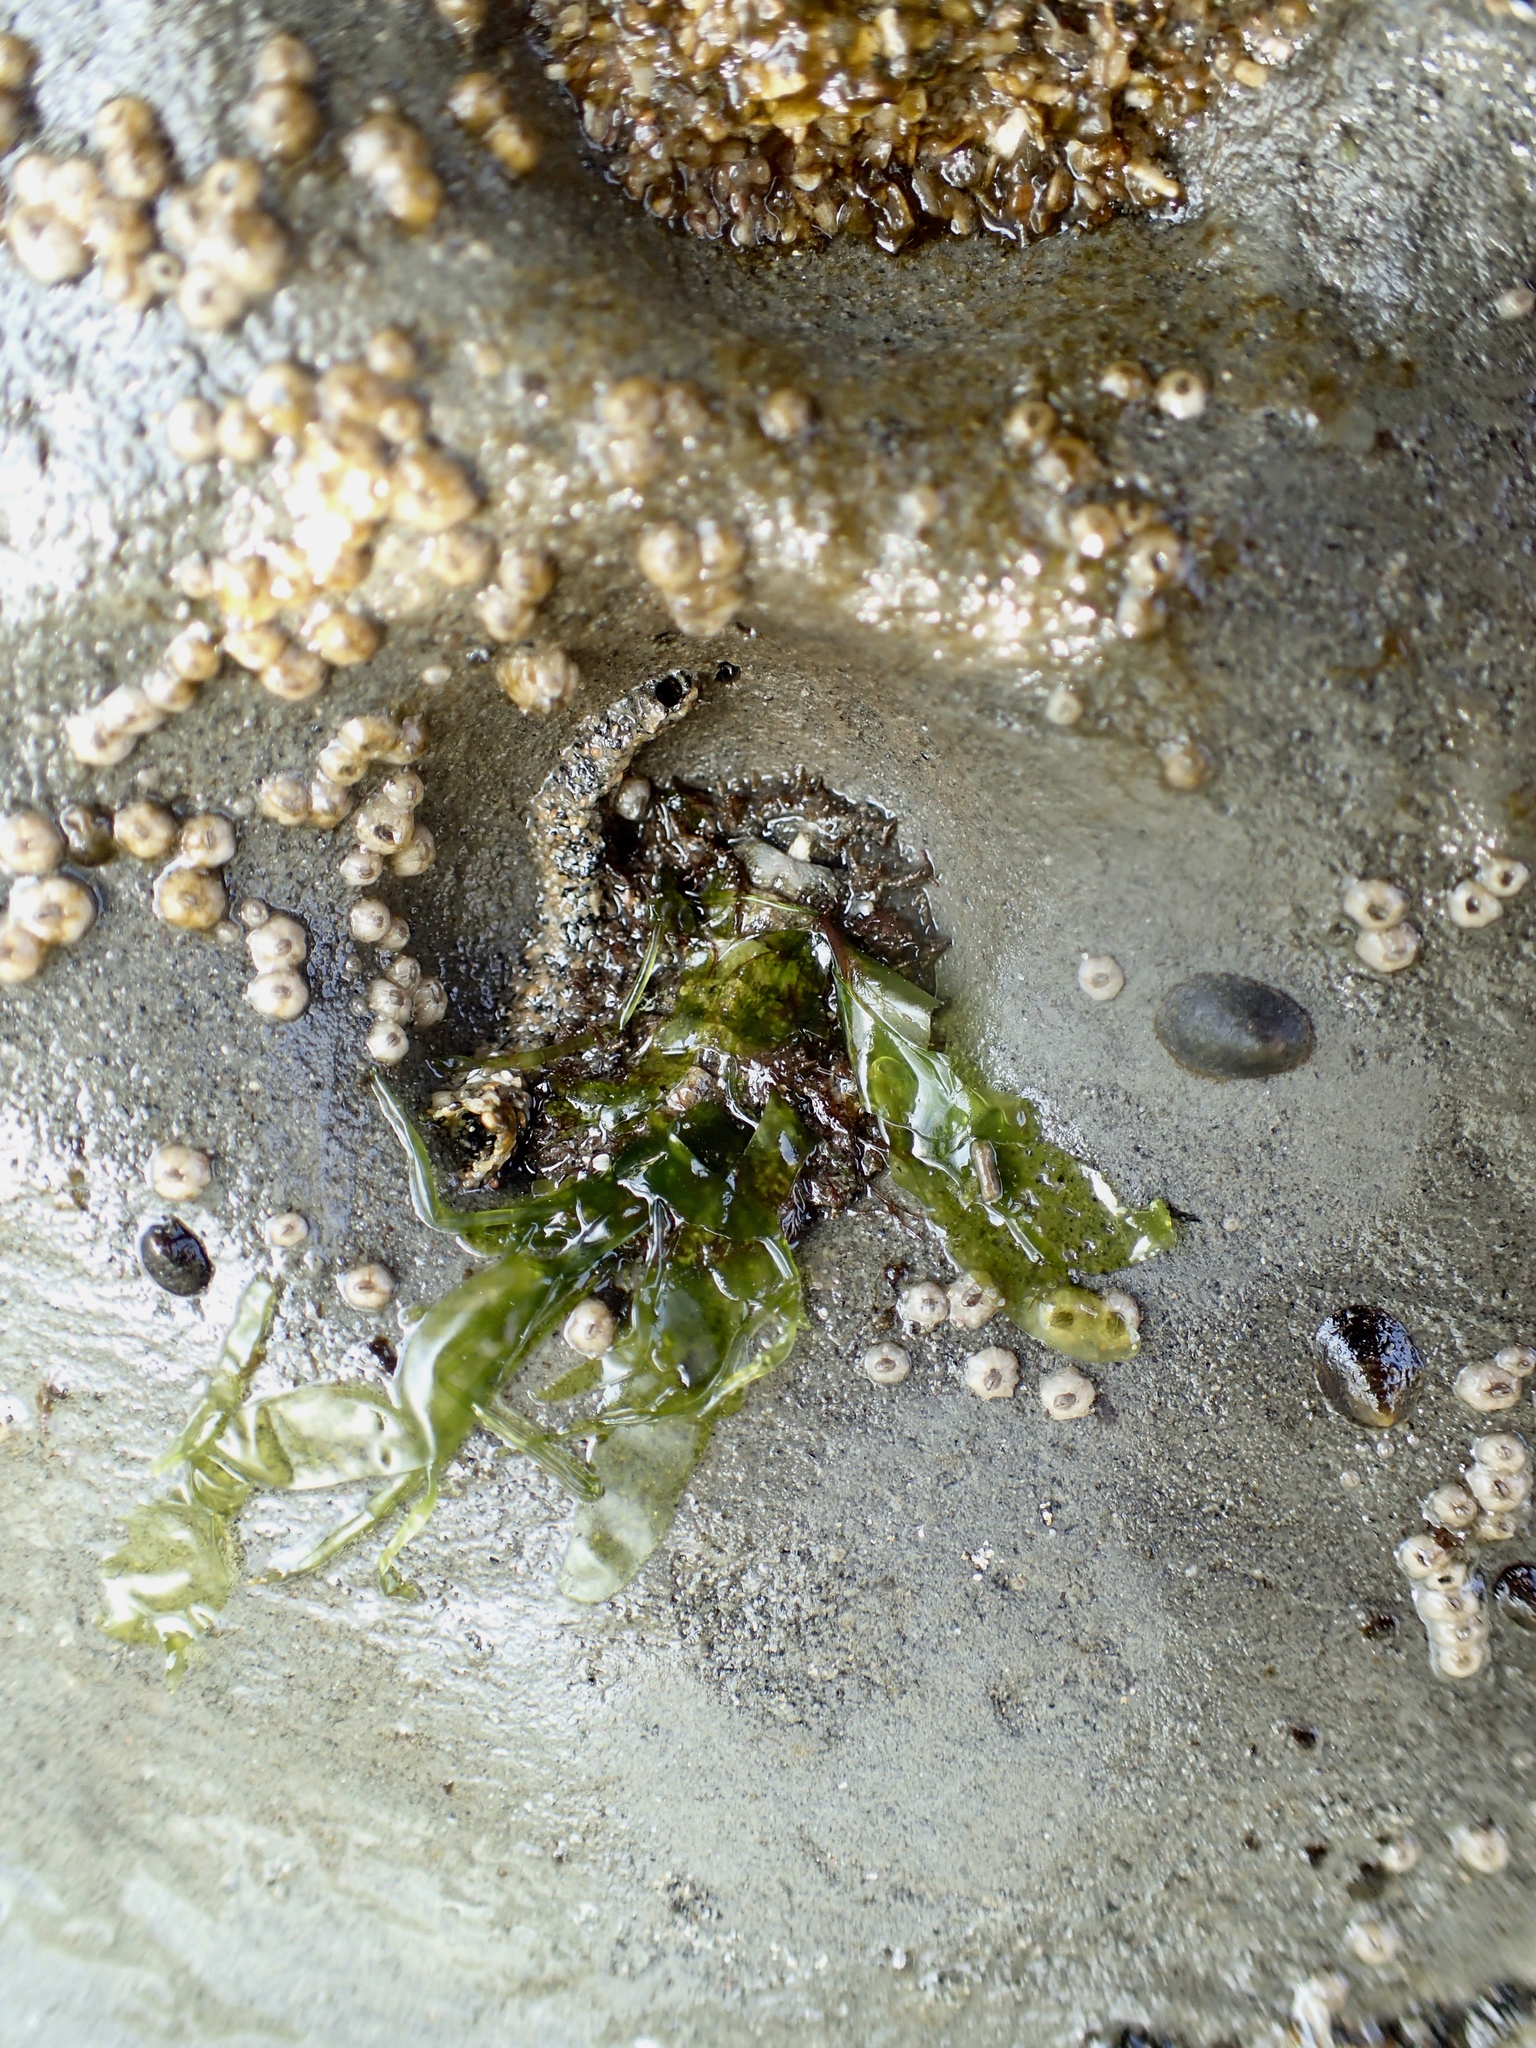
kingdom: Animalia
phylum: Mollusca
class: Polyplacophora
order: Chitonida
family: Mopaliidae
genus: Mopalia
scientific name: Mopalia muscosa
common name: Mossy chiton
